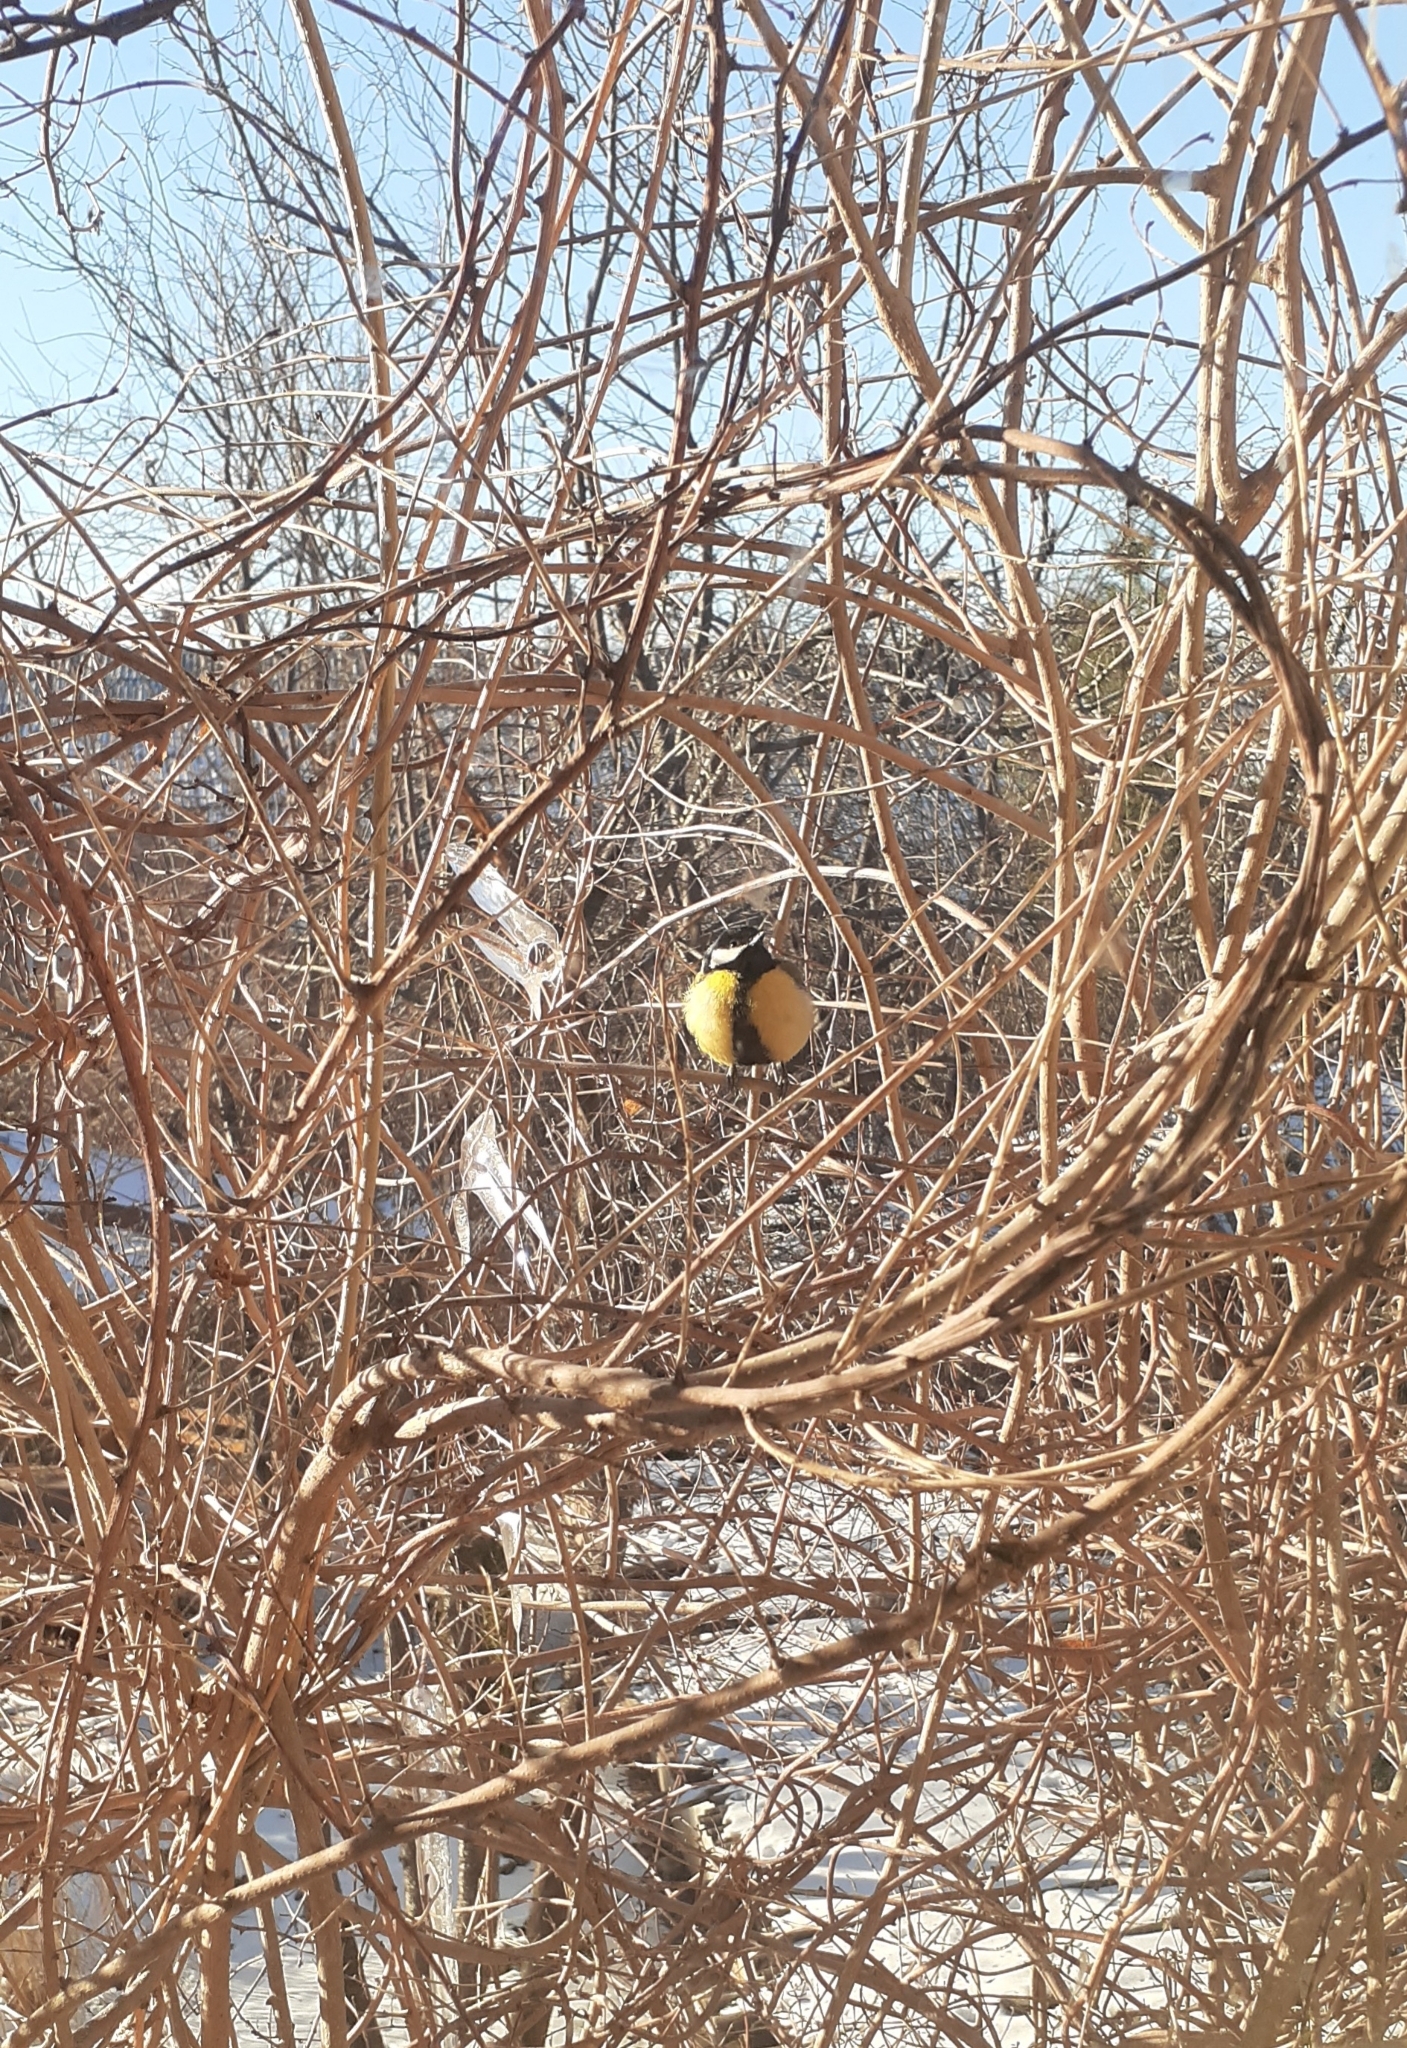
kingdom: Animalia
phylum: Chordata
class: Aves
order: Passeriformes
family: Paridae
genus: Parus
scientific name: Parus major
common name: Great tit
